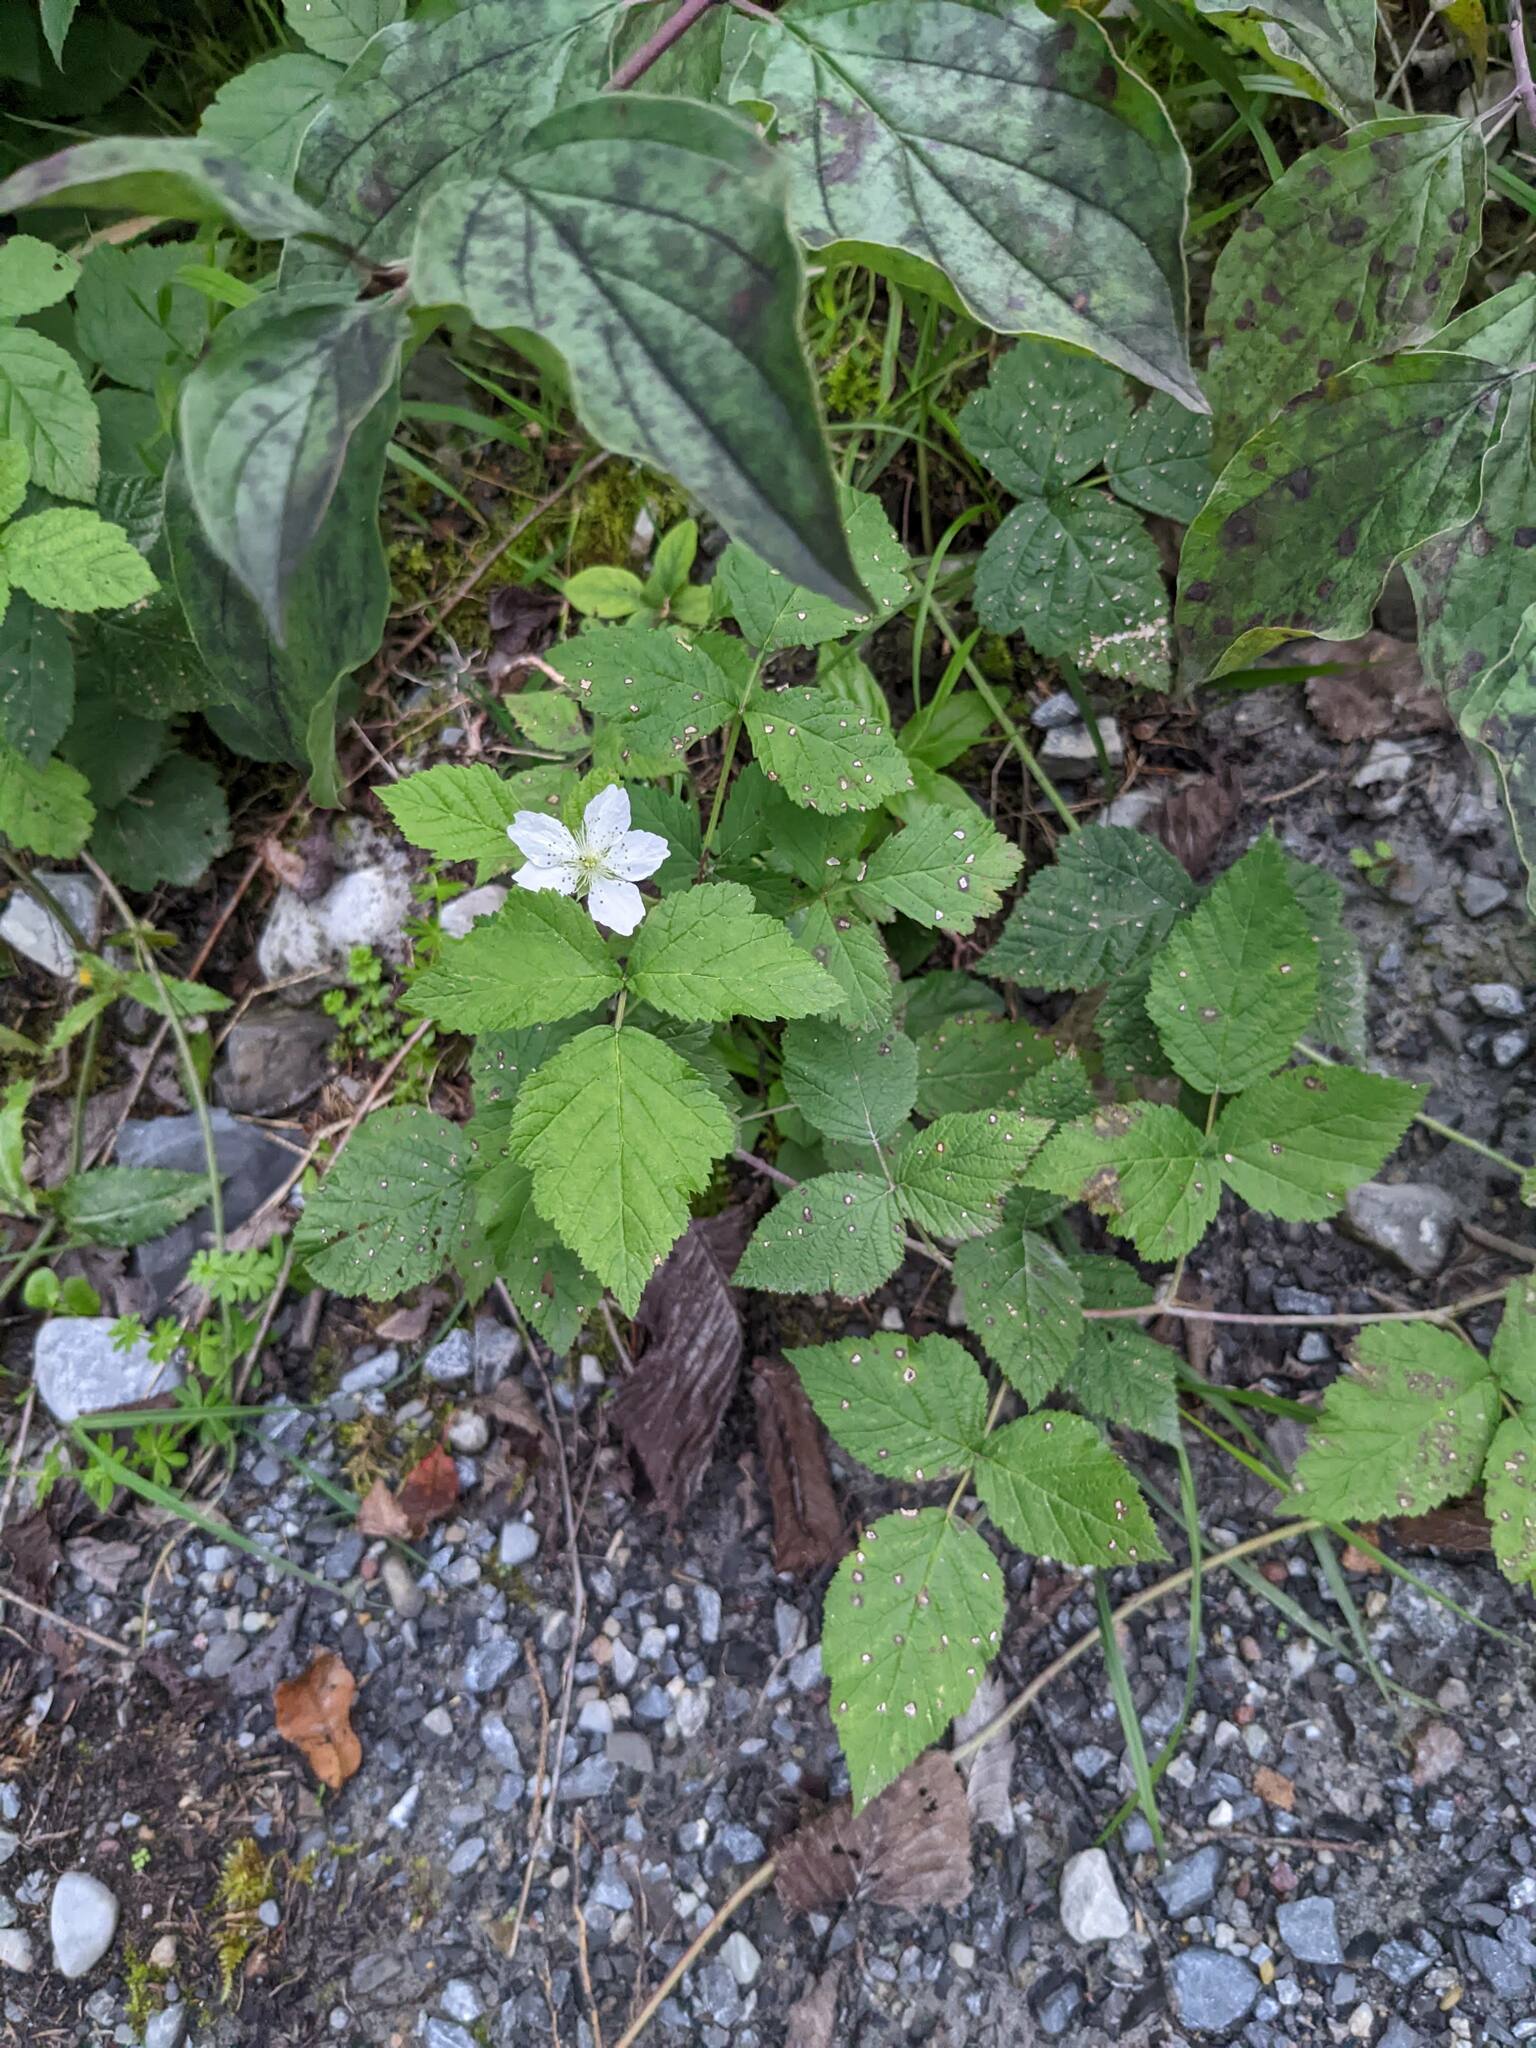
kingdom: Plantae
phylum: Tracheophyta
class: Magnoliopsida
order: Rosales
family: Rosaceae
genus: Rubus
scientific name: Rubus caesius
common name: Dewberry
